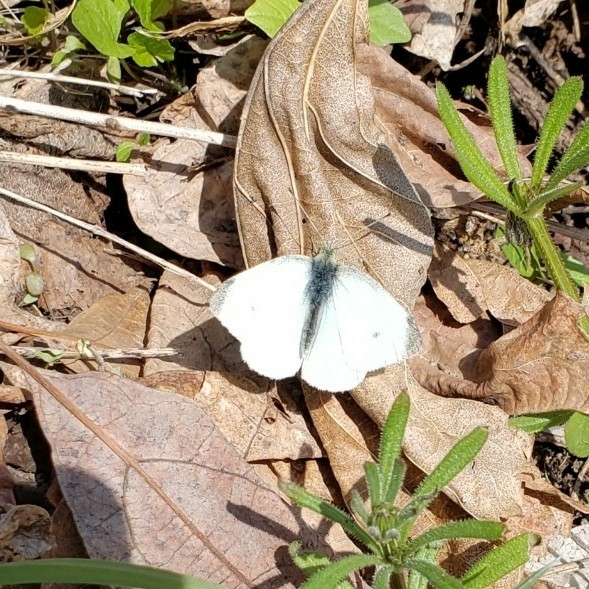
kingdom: Animalia
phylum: Arthropoda
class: Insecta
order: Lepidoptera
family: Pieridae
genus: Pieris
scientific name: Pieris rapae
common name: Small white
